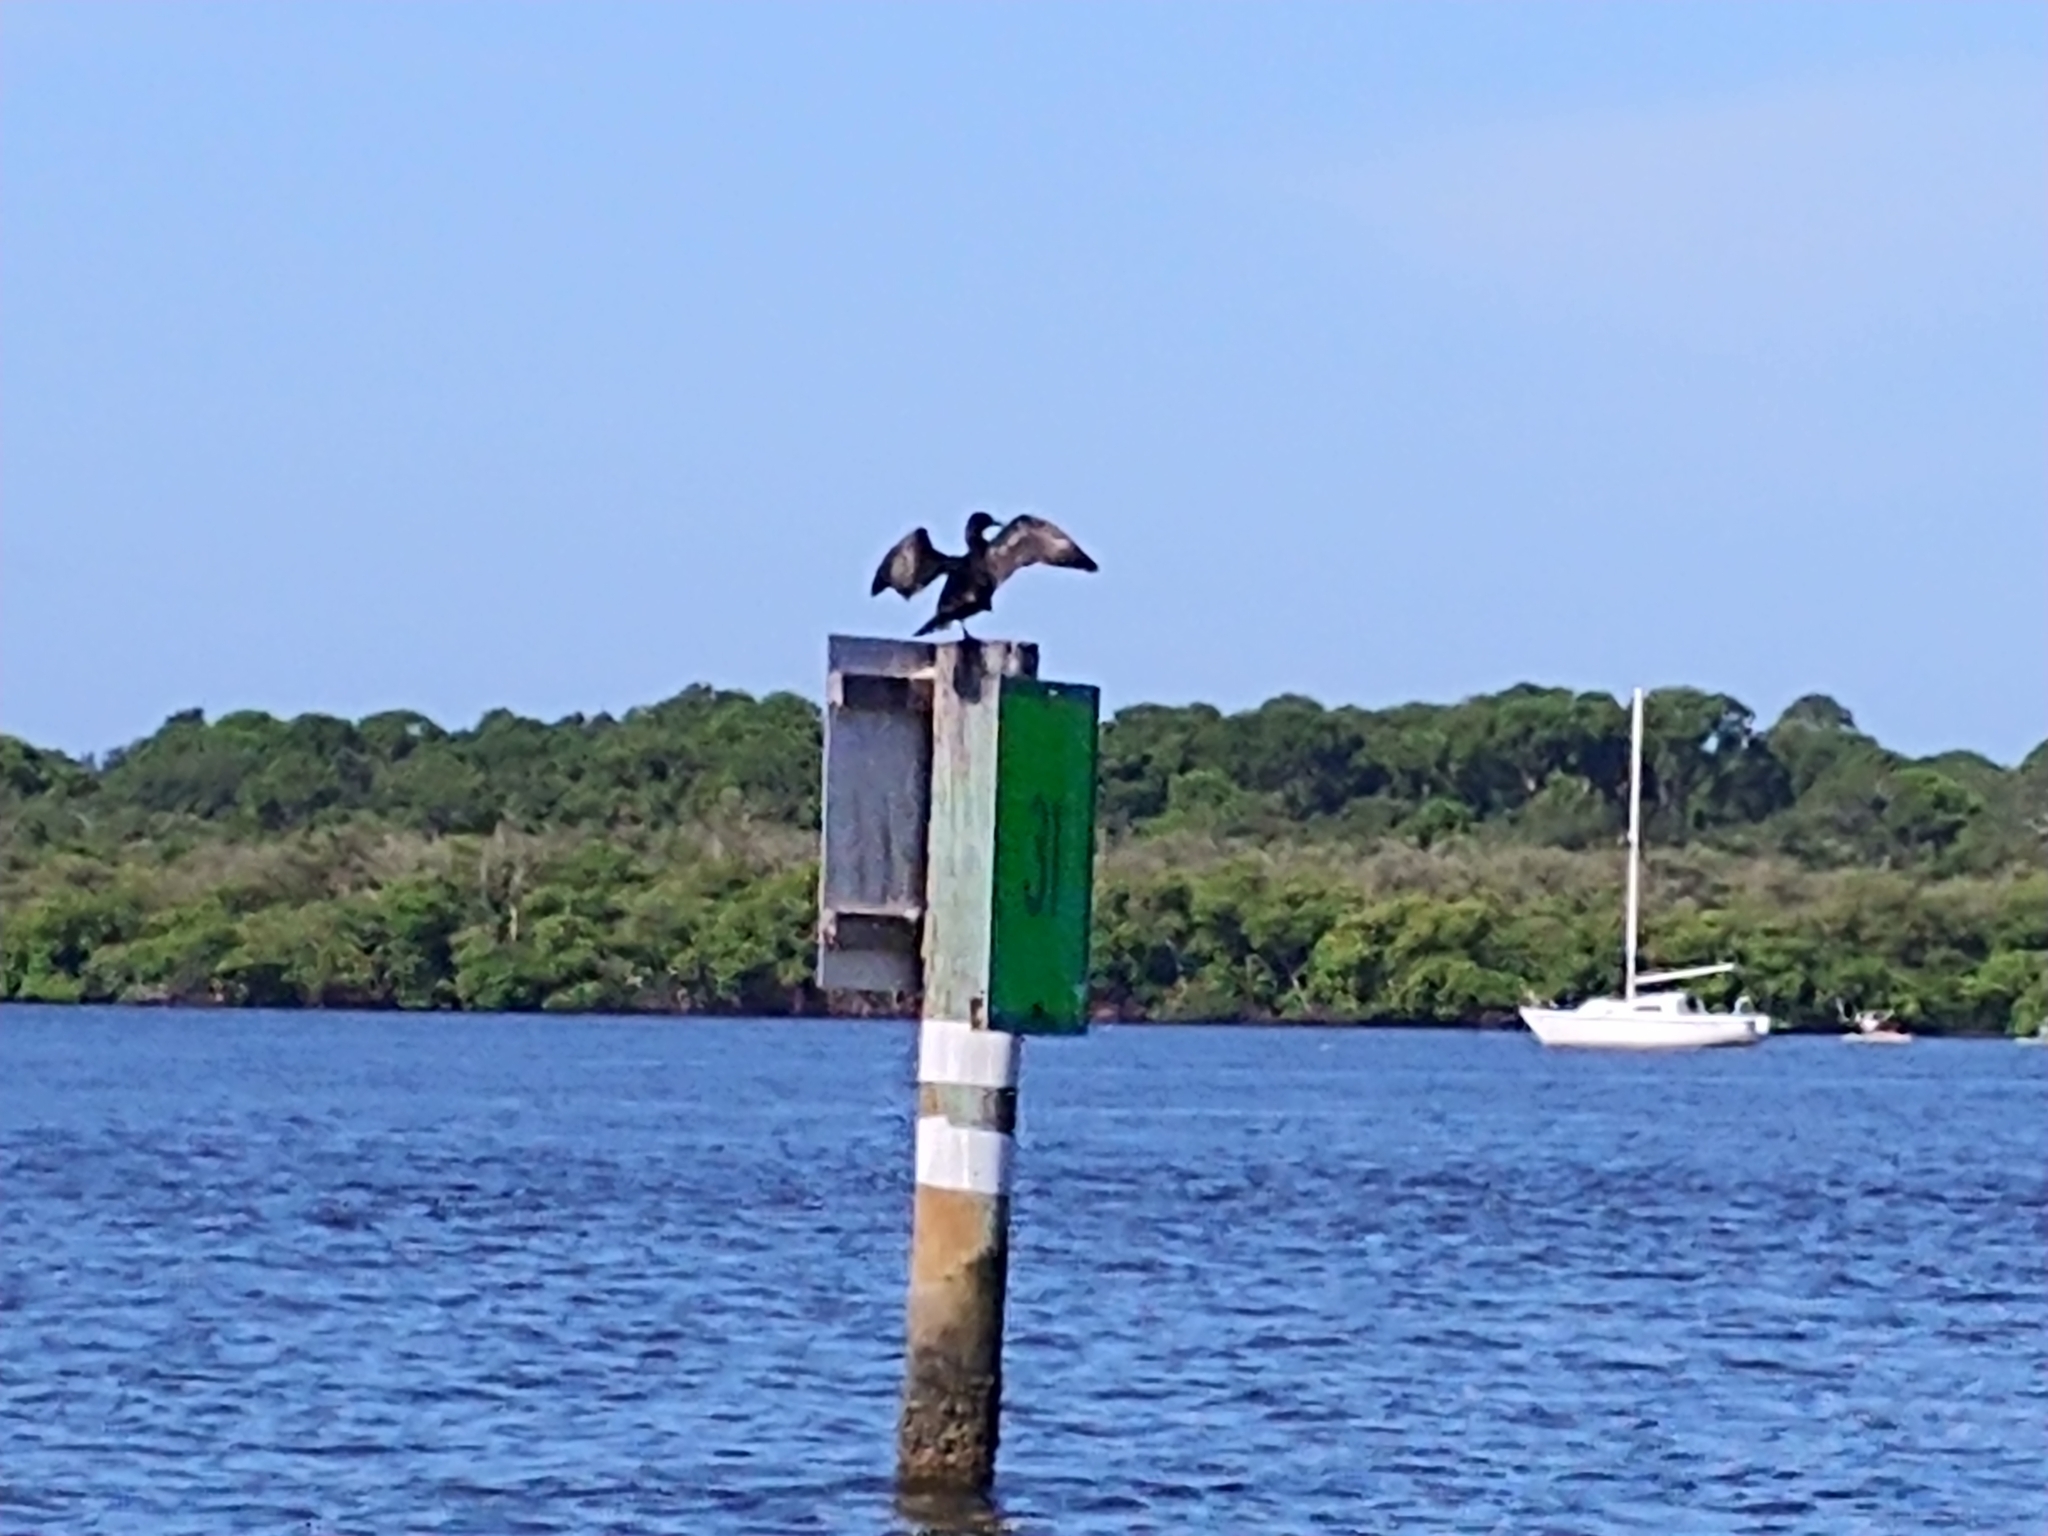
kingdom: Animalia
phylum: Chordata
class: Aves
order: Suliformes
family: Anhingidae
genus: Anhinga
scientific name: Anhinga anhinga
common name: Anhinga
